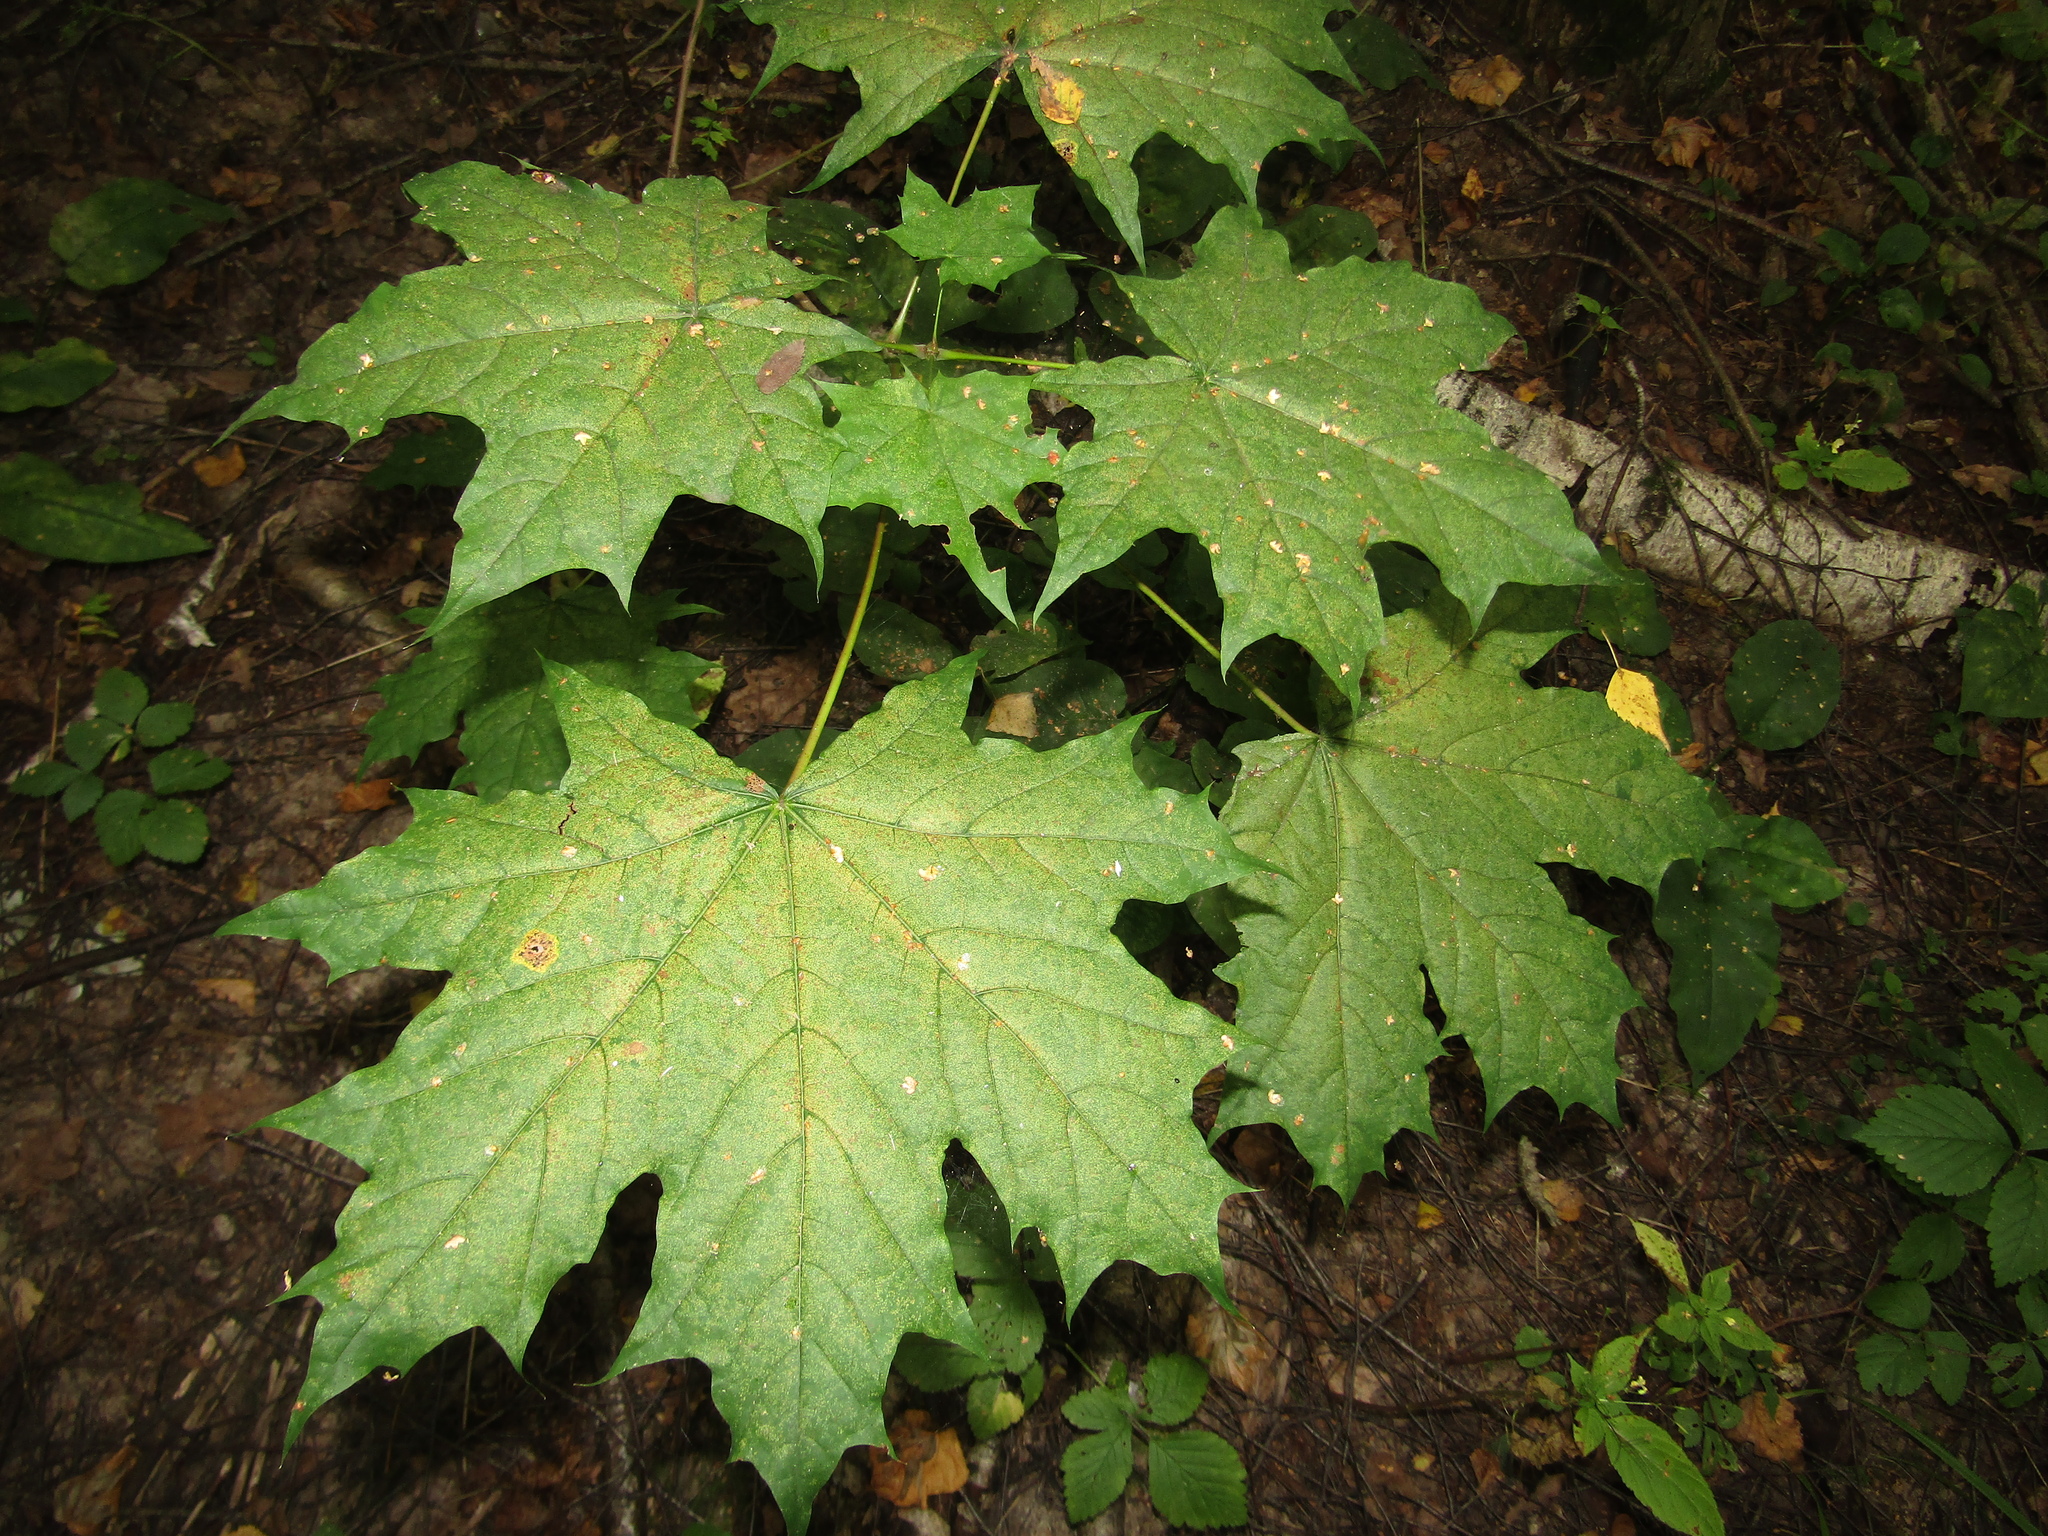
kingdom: Plantae
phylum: Tracheophyta
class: Magnoliopsida
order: Sapindales
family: Sapindaceae
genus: Acer
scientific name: Acer platanoides
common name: Norway maple
